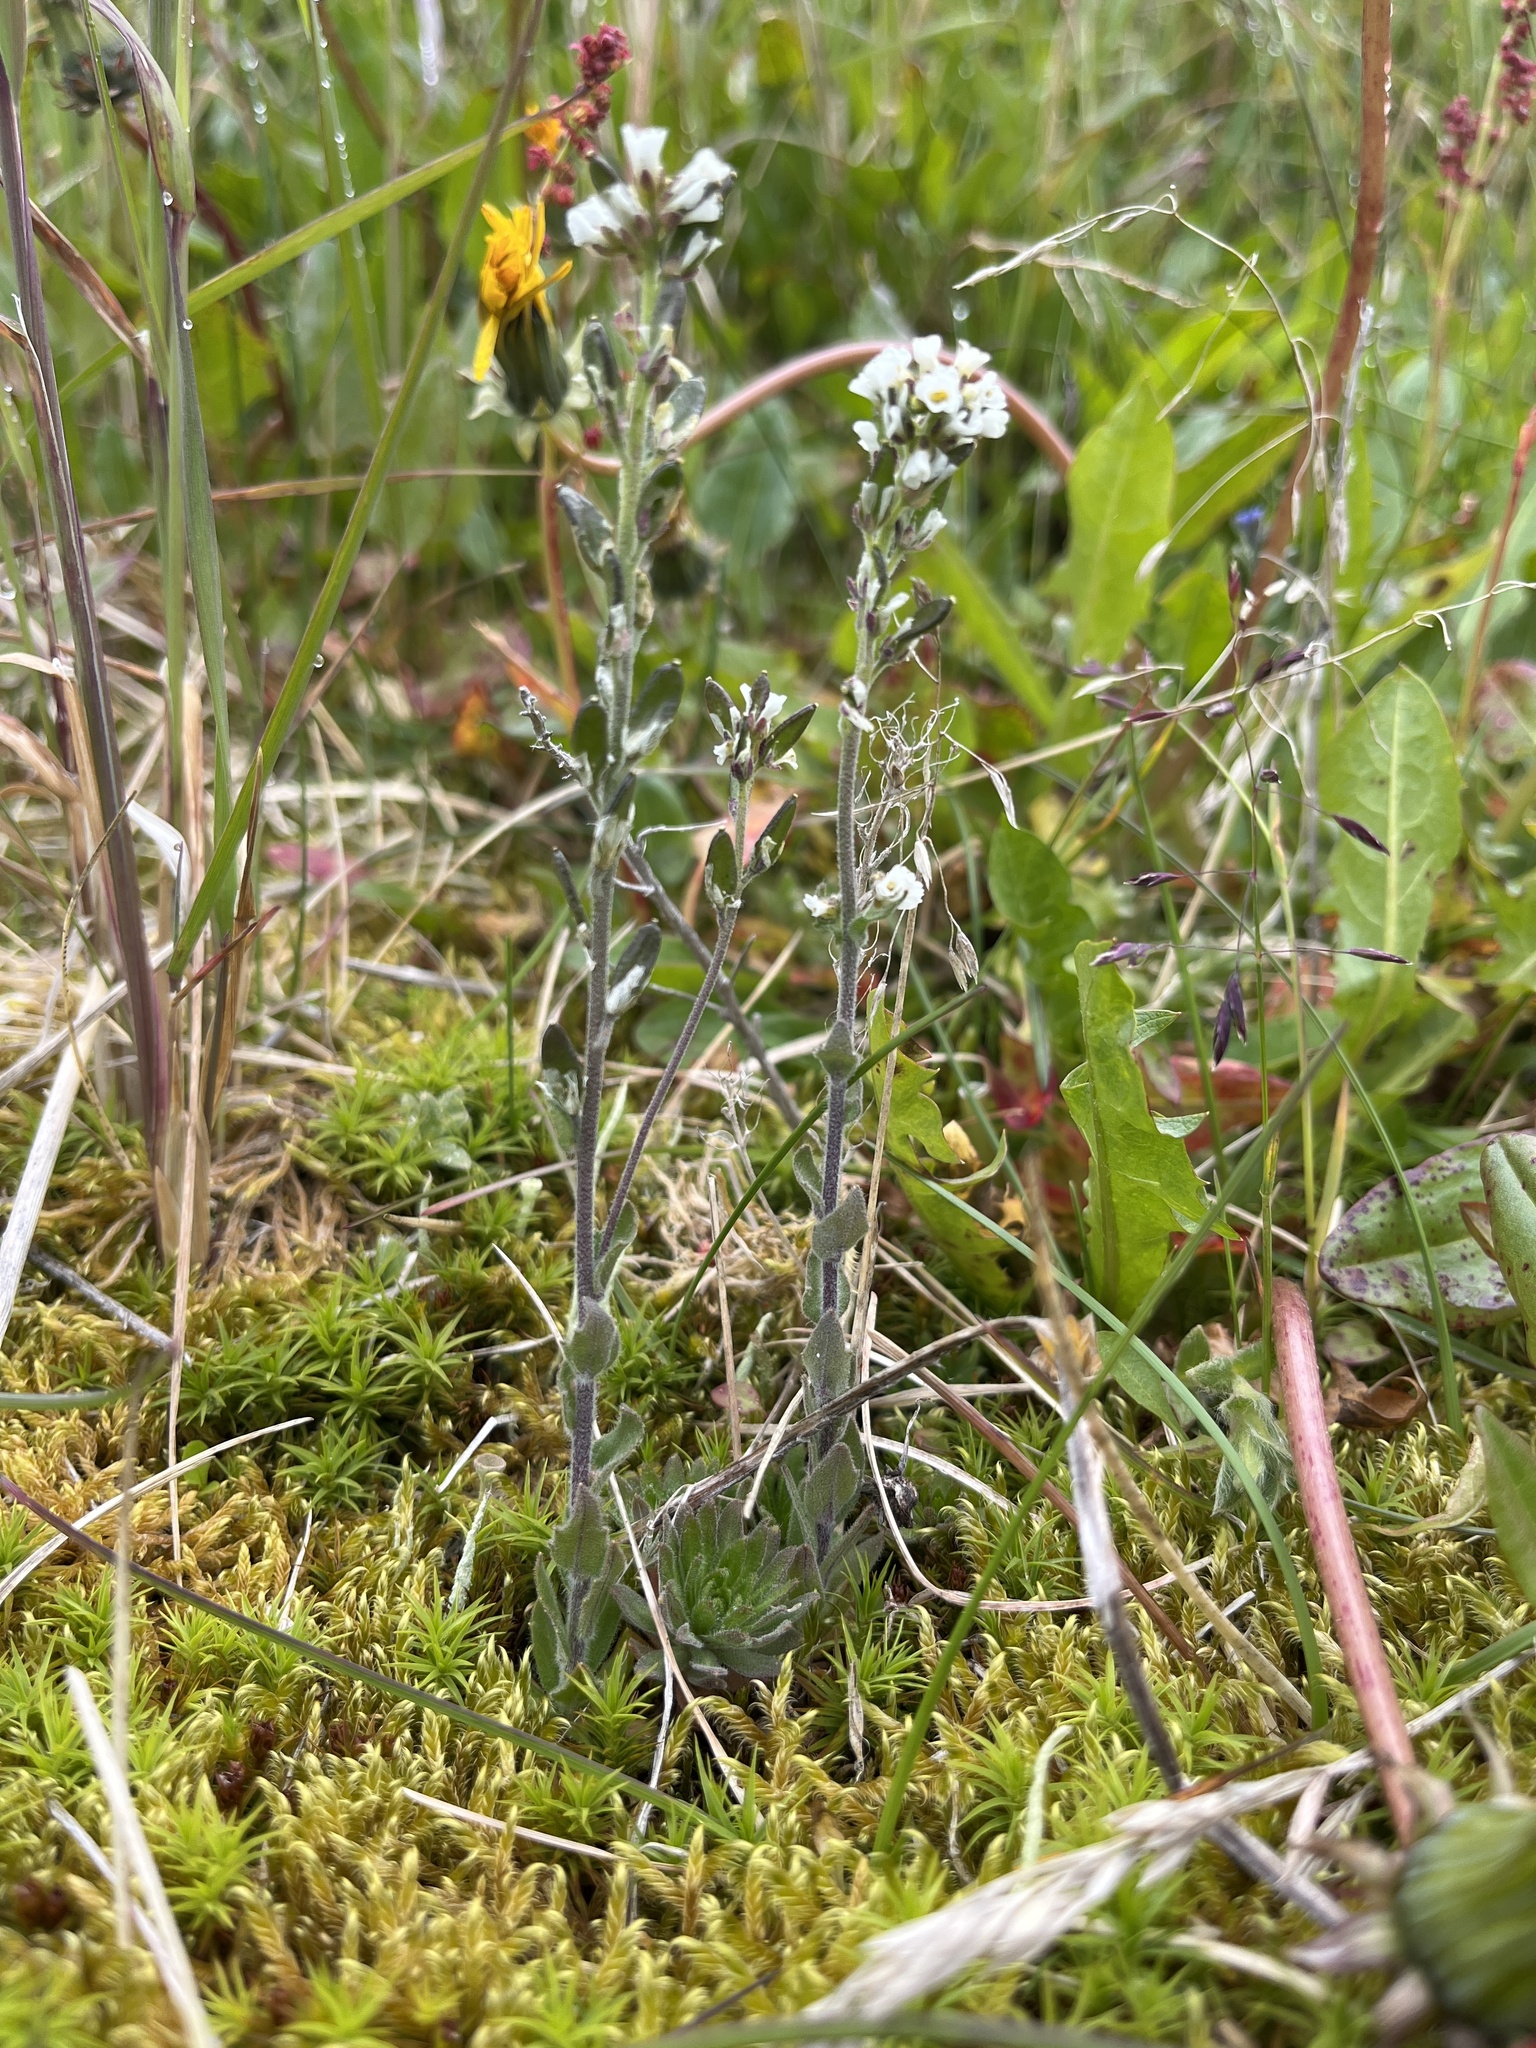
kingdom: Plantae
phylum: Tracheophyta
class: Magnoliopsida
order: Brassicales
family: Brassicaceae
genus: Draba
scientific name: Draba incana
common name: Hoary whitlow-grass
